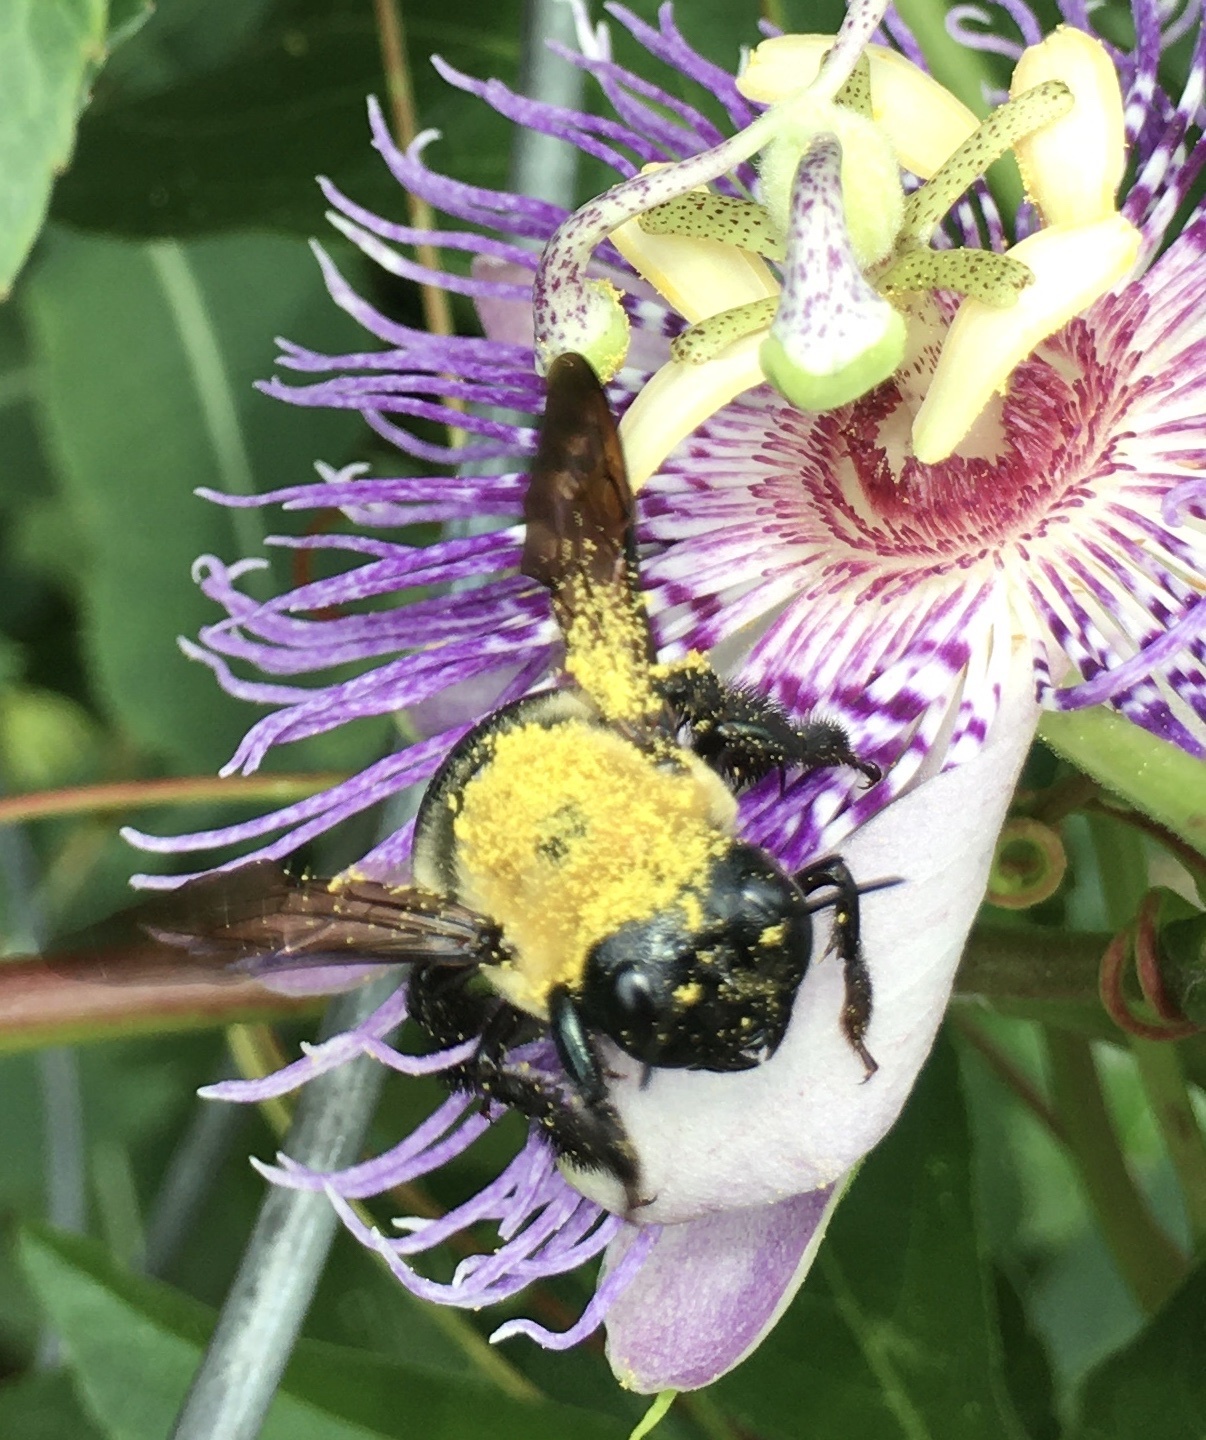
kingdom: Animalia
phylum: Arthropoda
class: Insecta
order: Hymenoptera
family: Apidae
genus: Xylocopa
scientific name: Xylocopa virginica
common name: Carpenter bee
